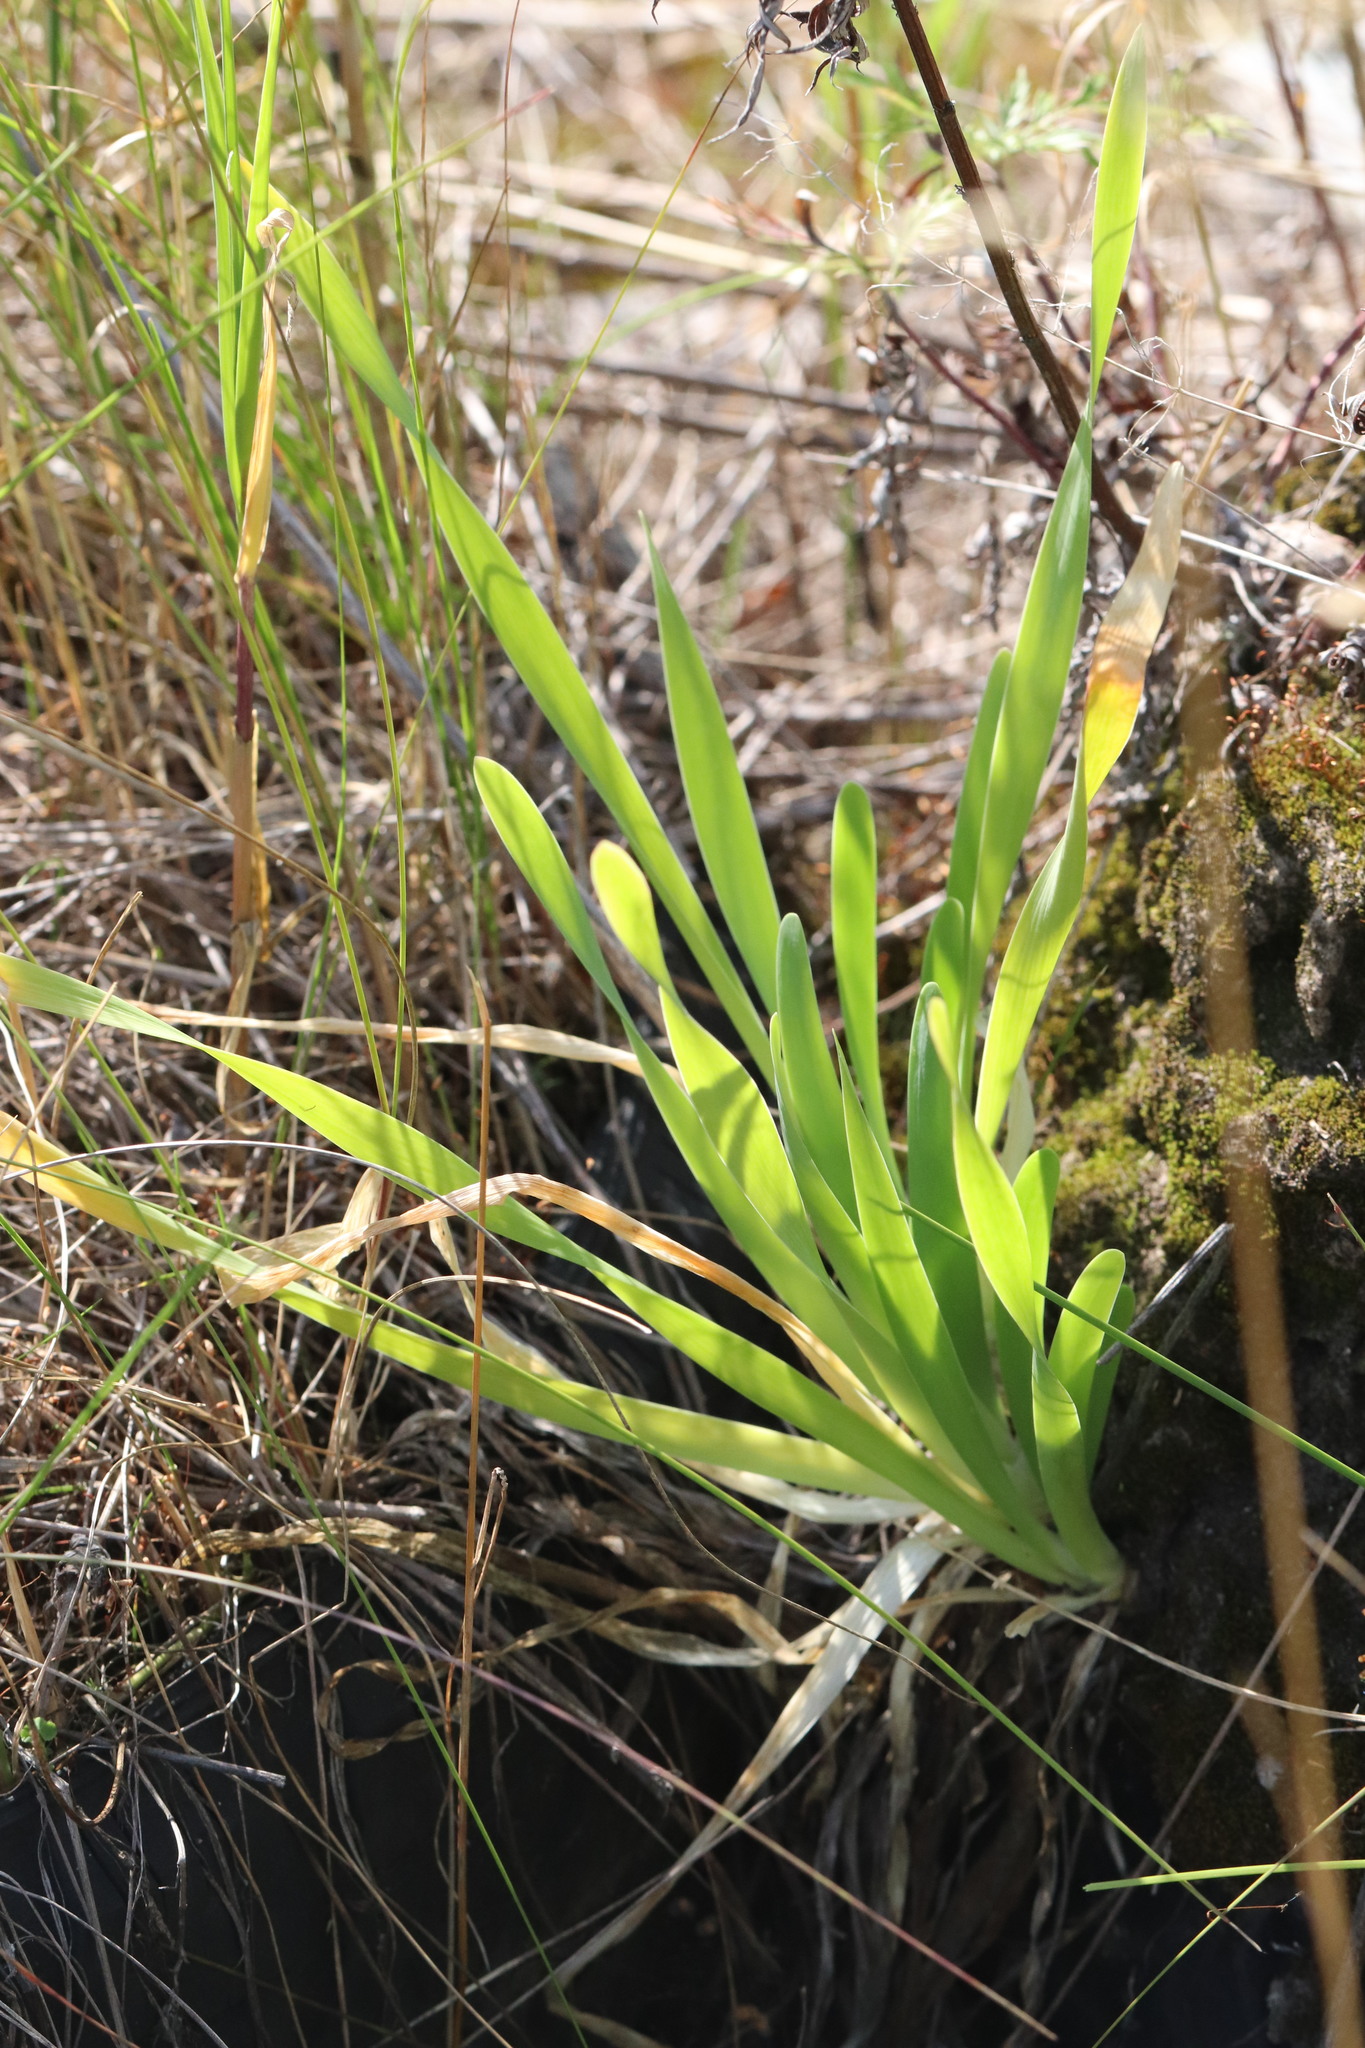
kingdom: Plantae
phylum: Tracheophyta
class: Liliopsida
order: Asparagales
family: Amaryllidaceae
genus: Allium
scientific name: Allium nutans
